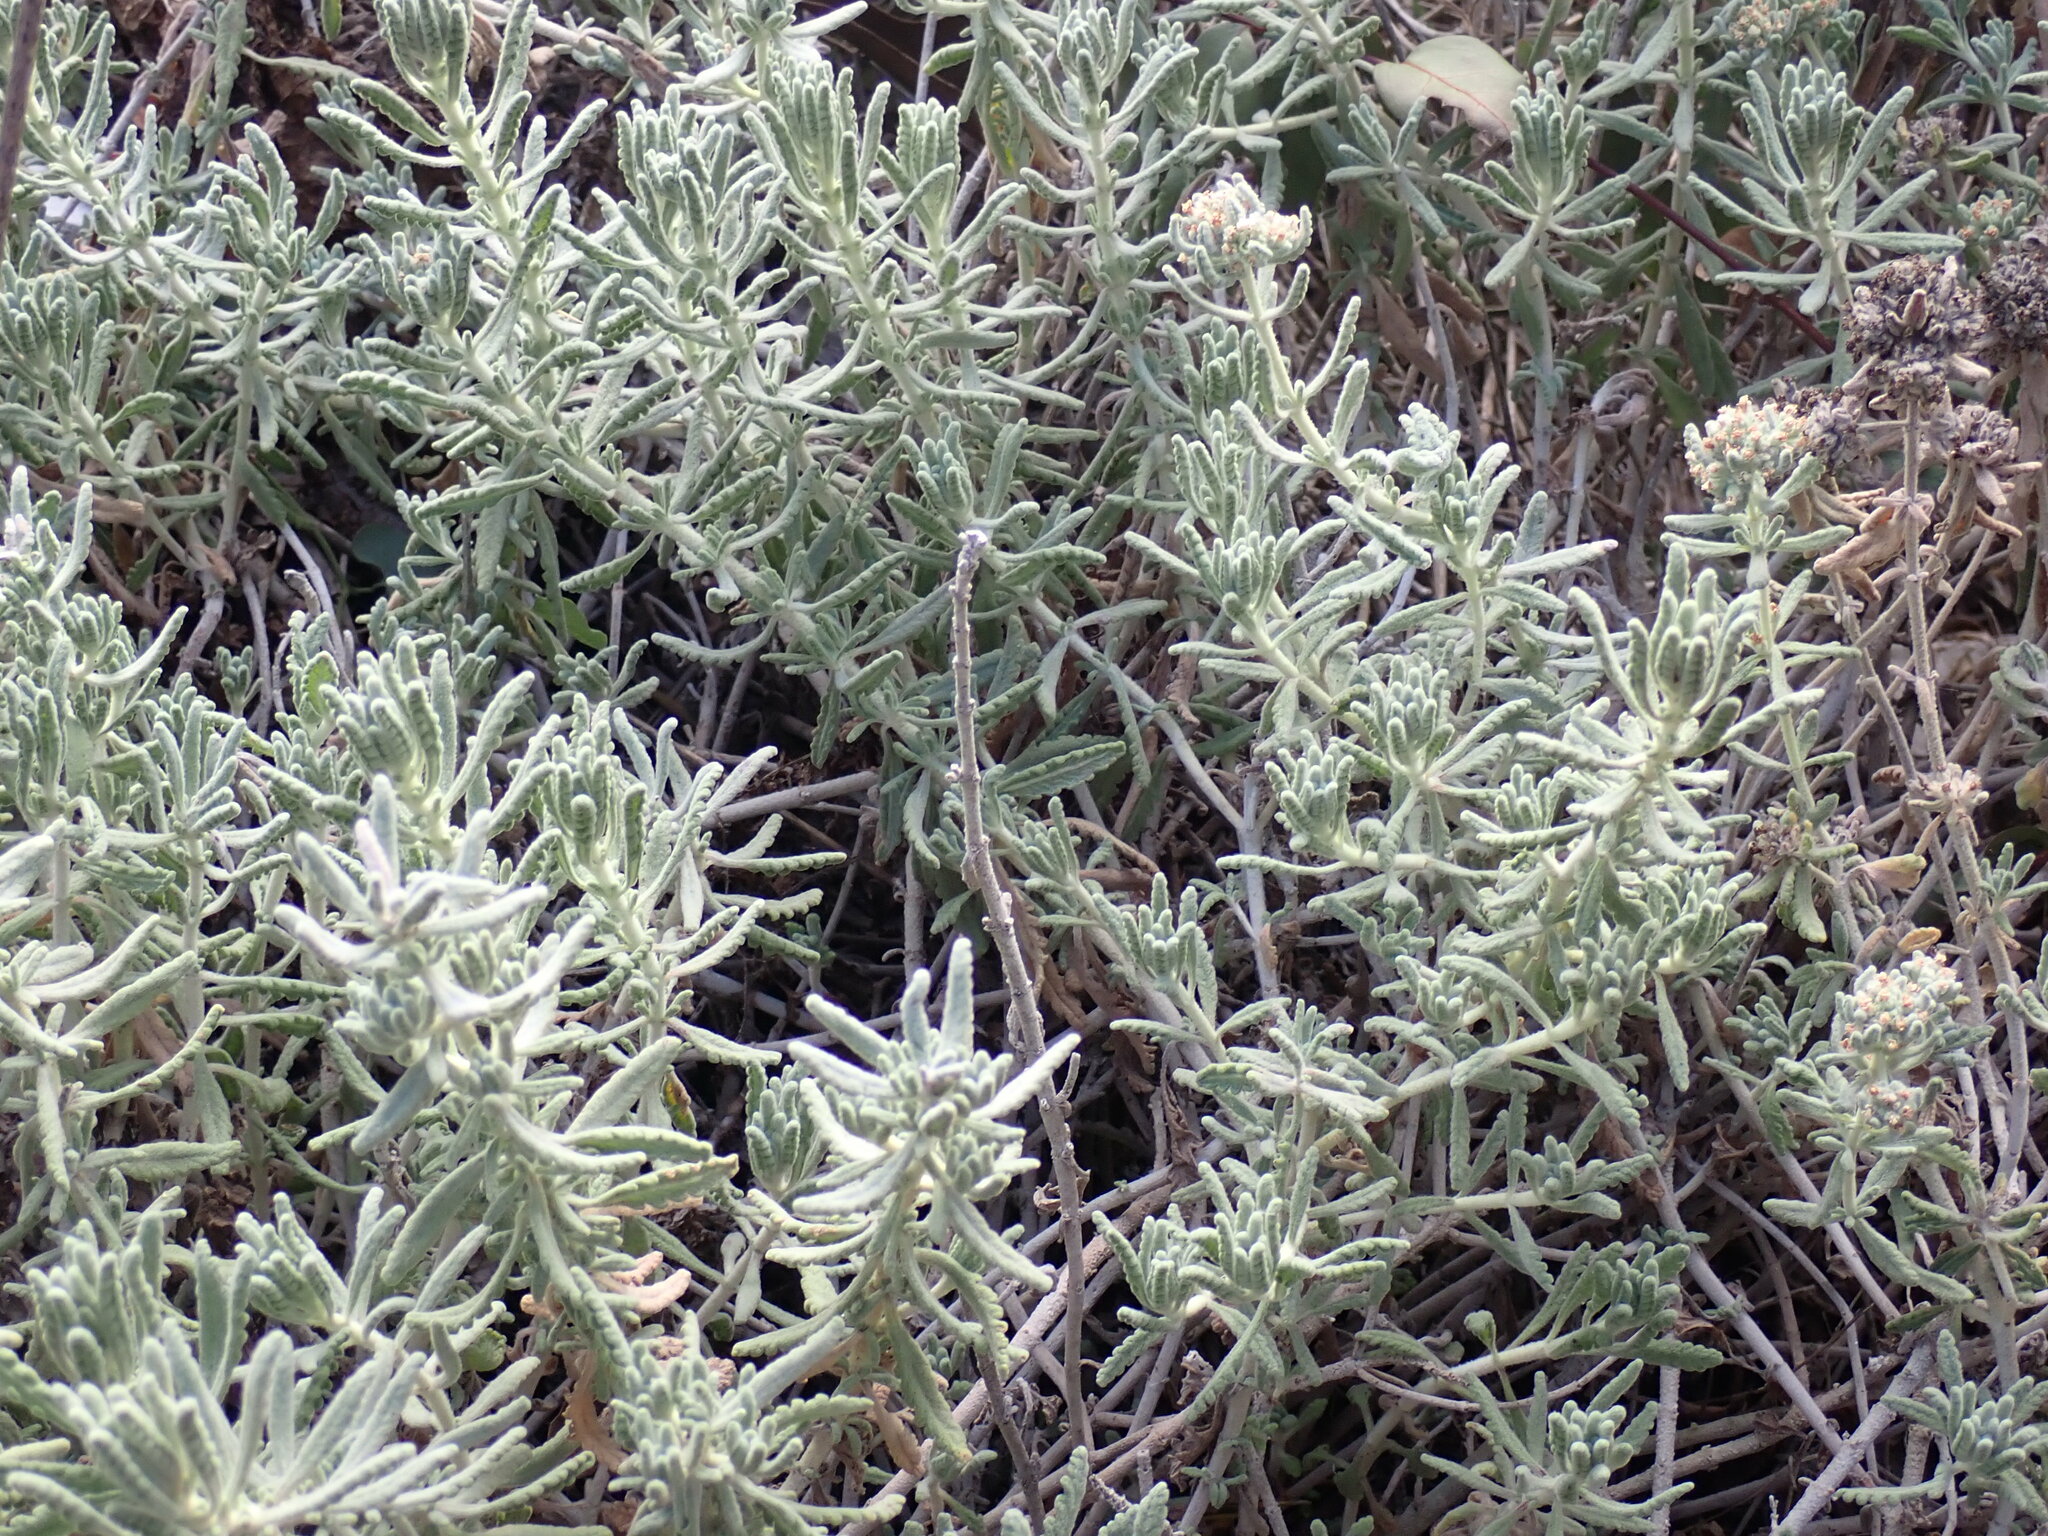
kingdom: Plantae
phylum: Tracheophyta
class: Magnoliopsida
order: Lamiales
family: Lamiaceae
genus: Teucrium
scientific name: Teucrium capitatum
